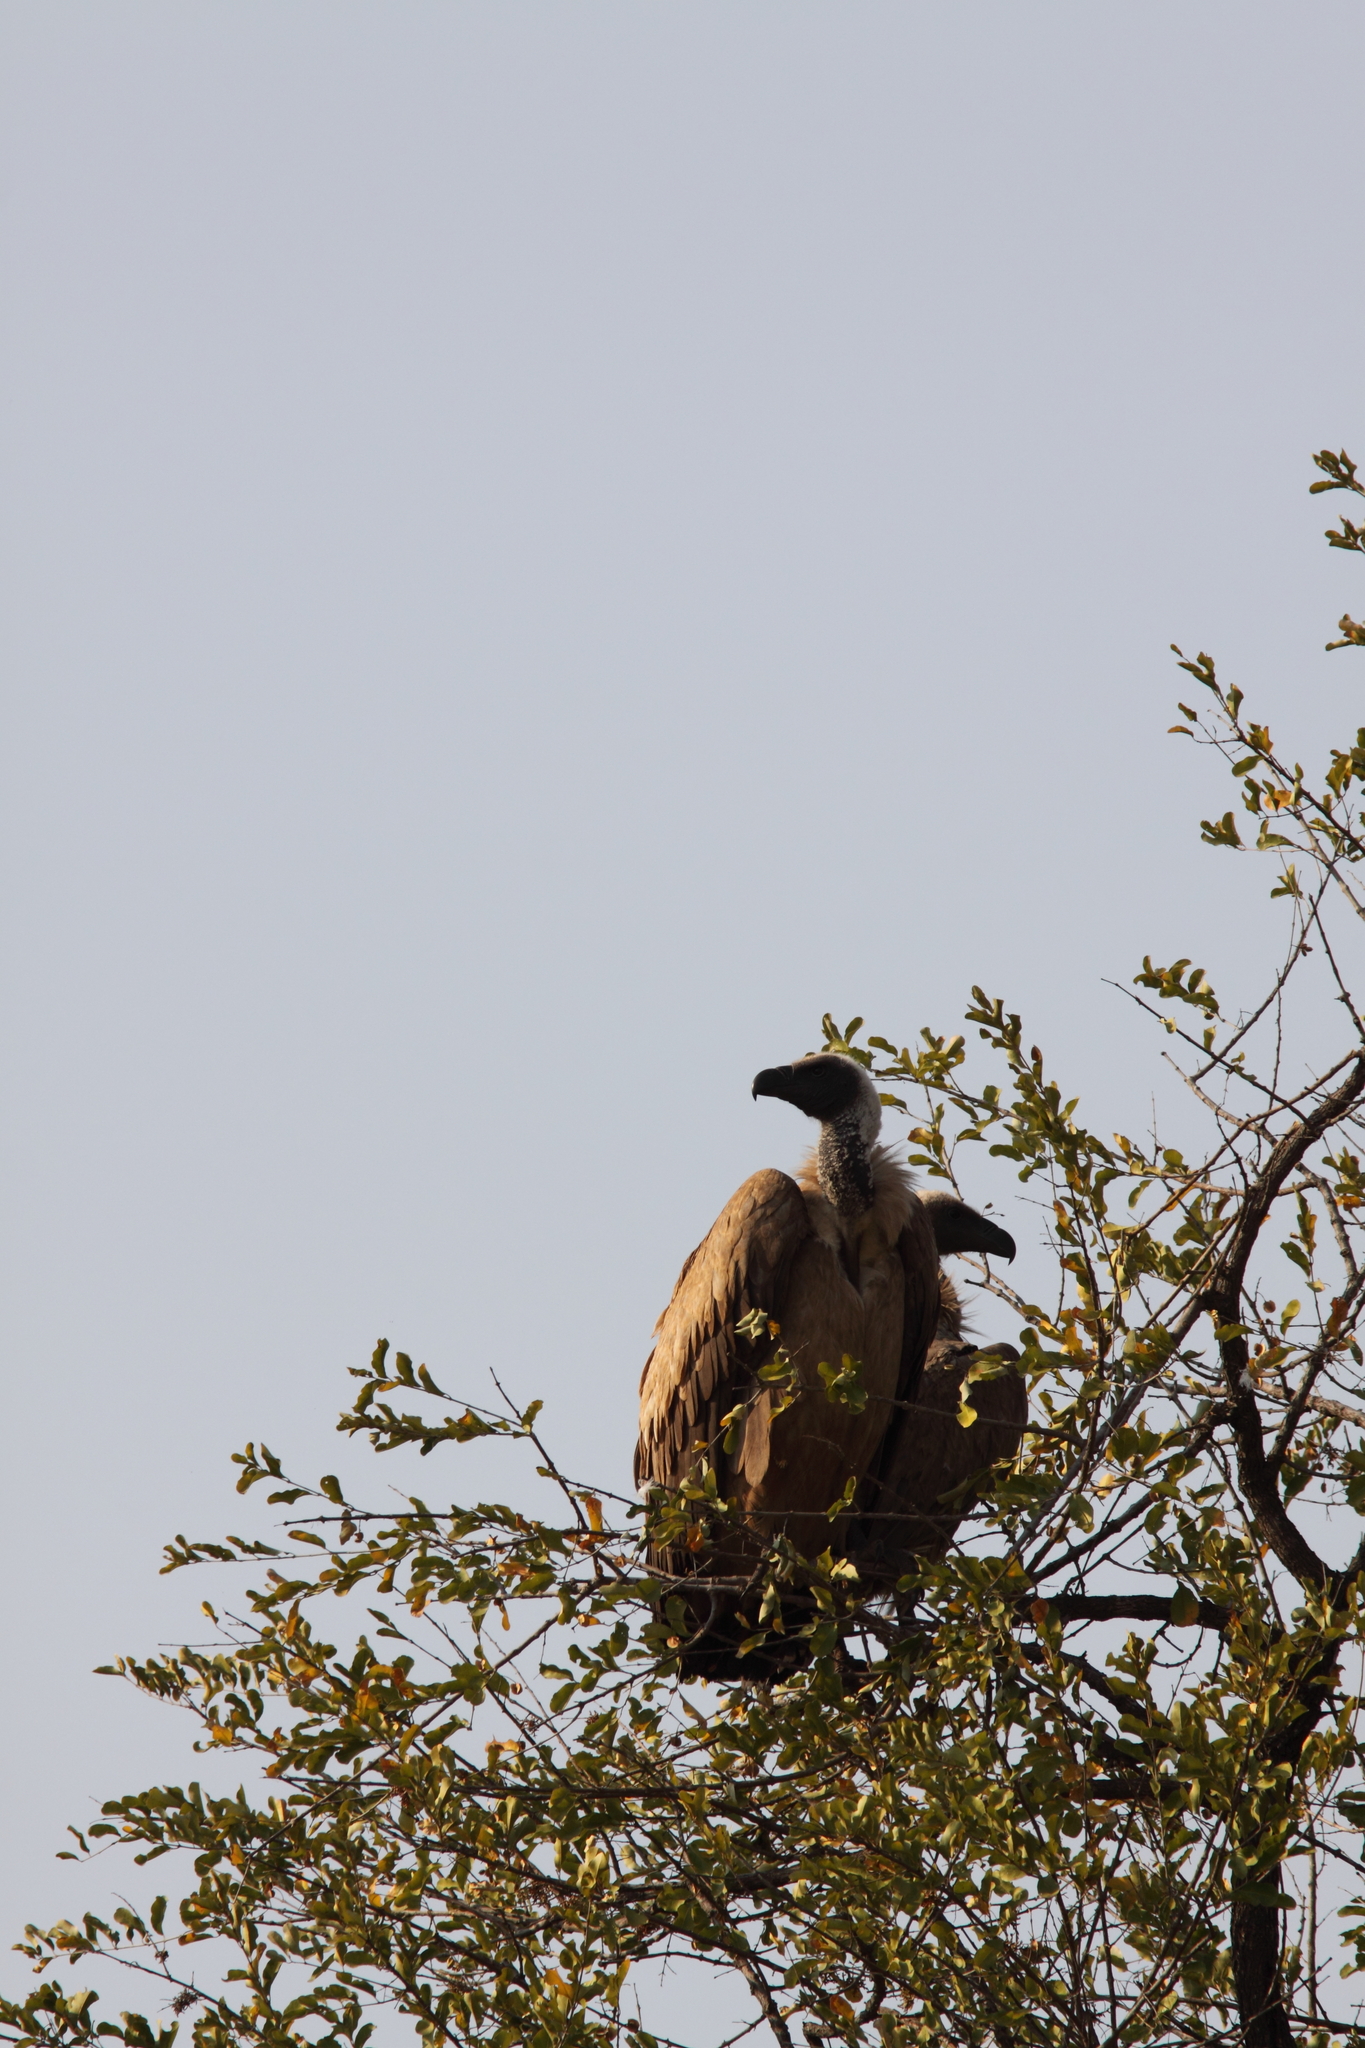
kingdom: Animalia
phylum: Chordata
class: Aves
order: Accipitriformes
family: Accipitridae
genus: Gyps
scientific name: Gyps africanus
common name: White-backed vulture
